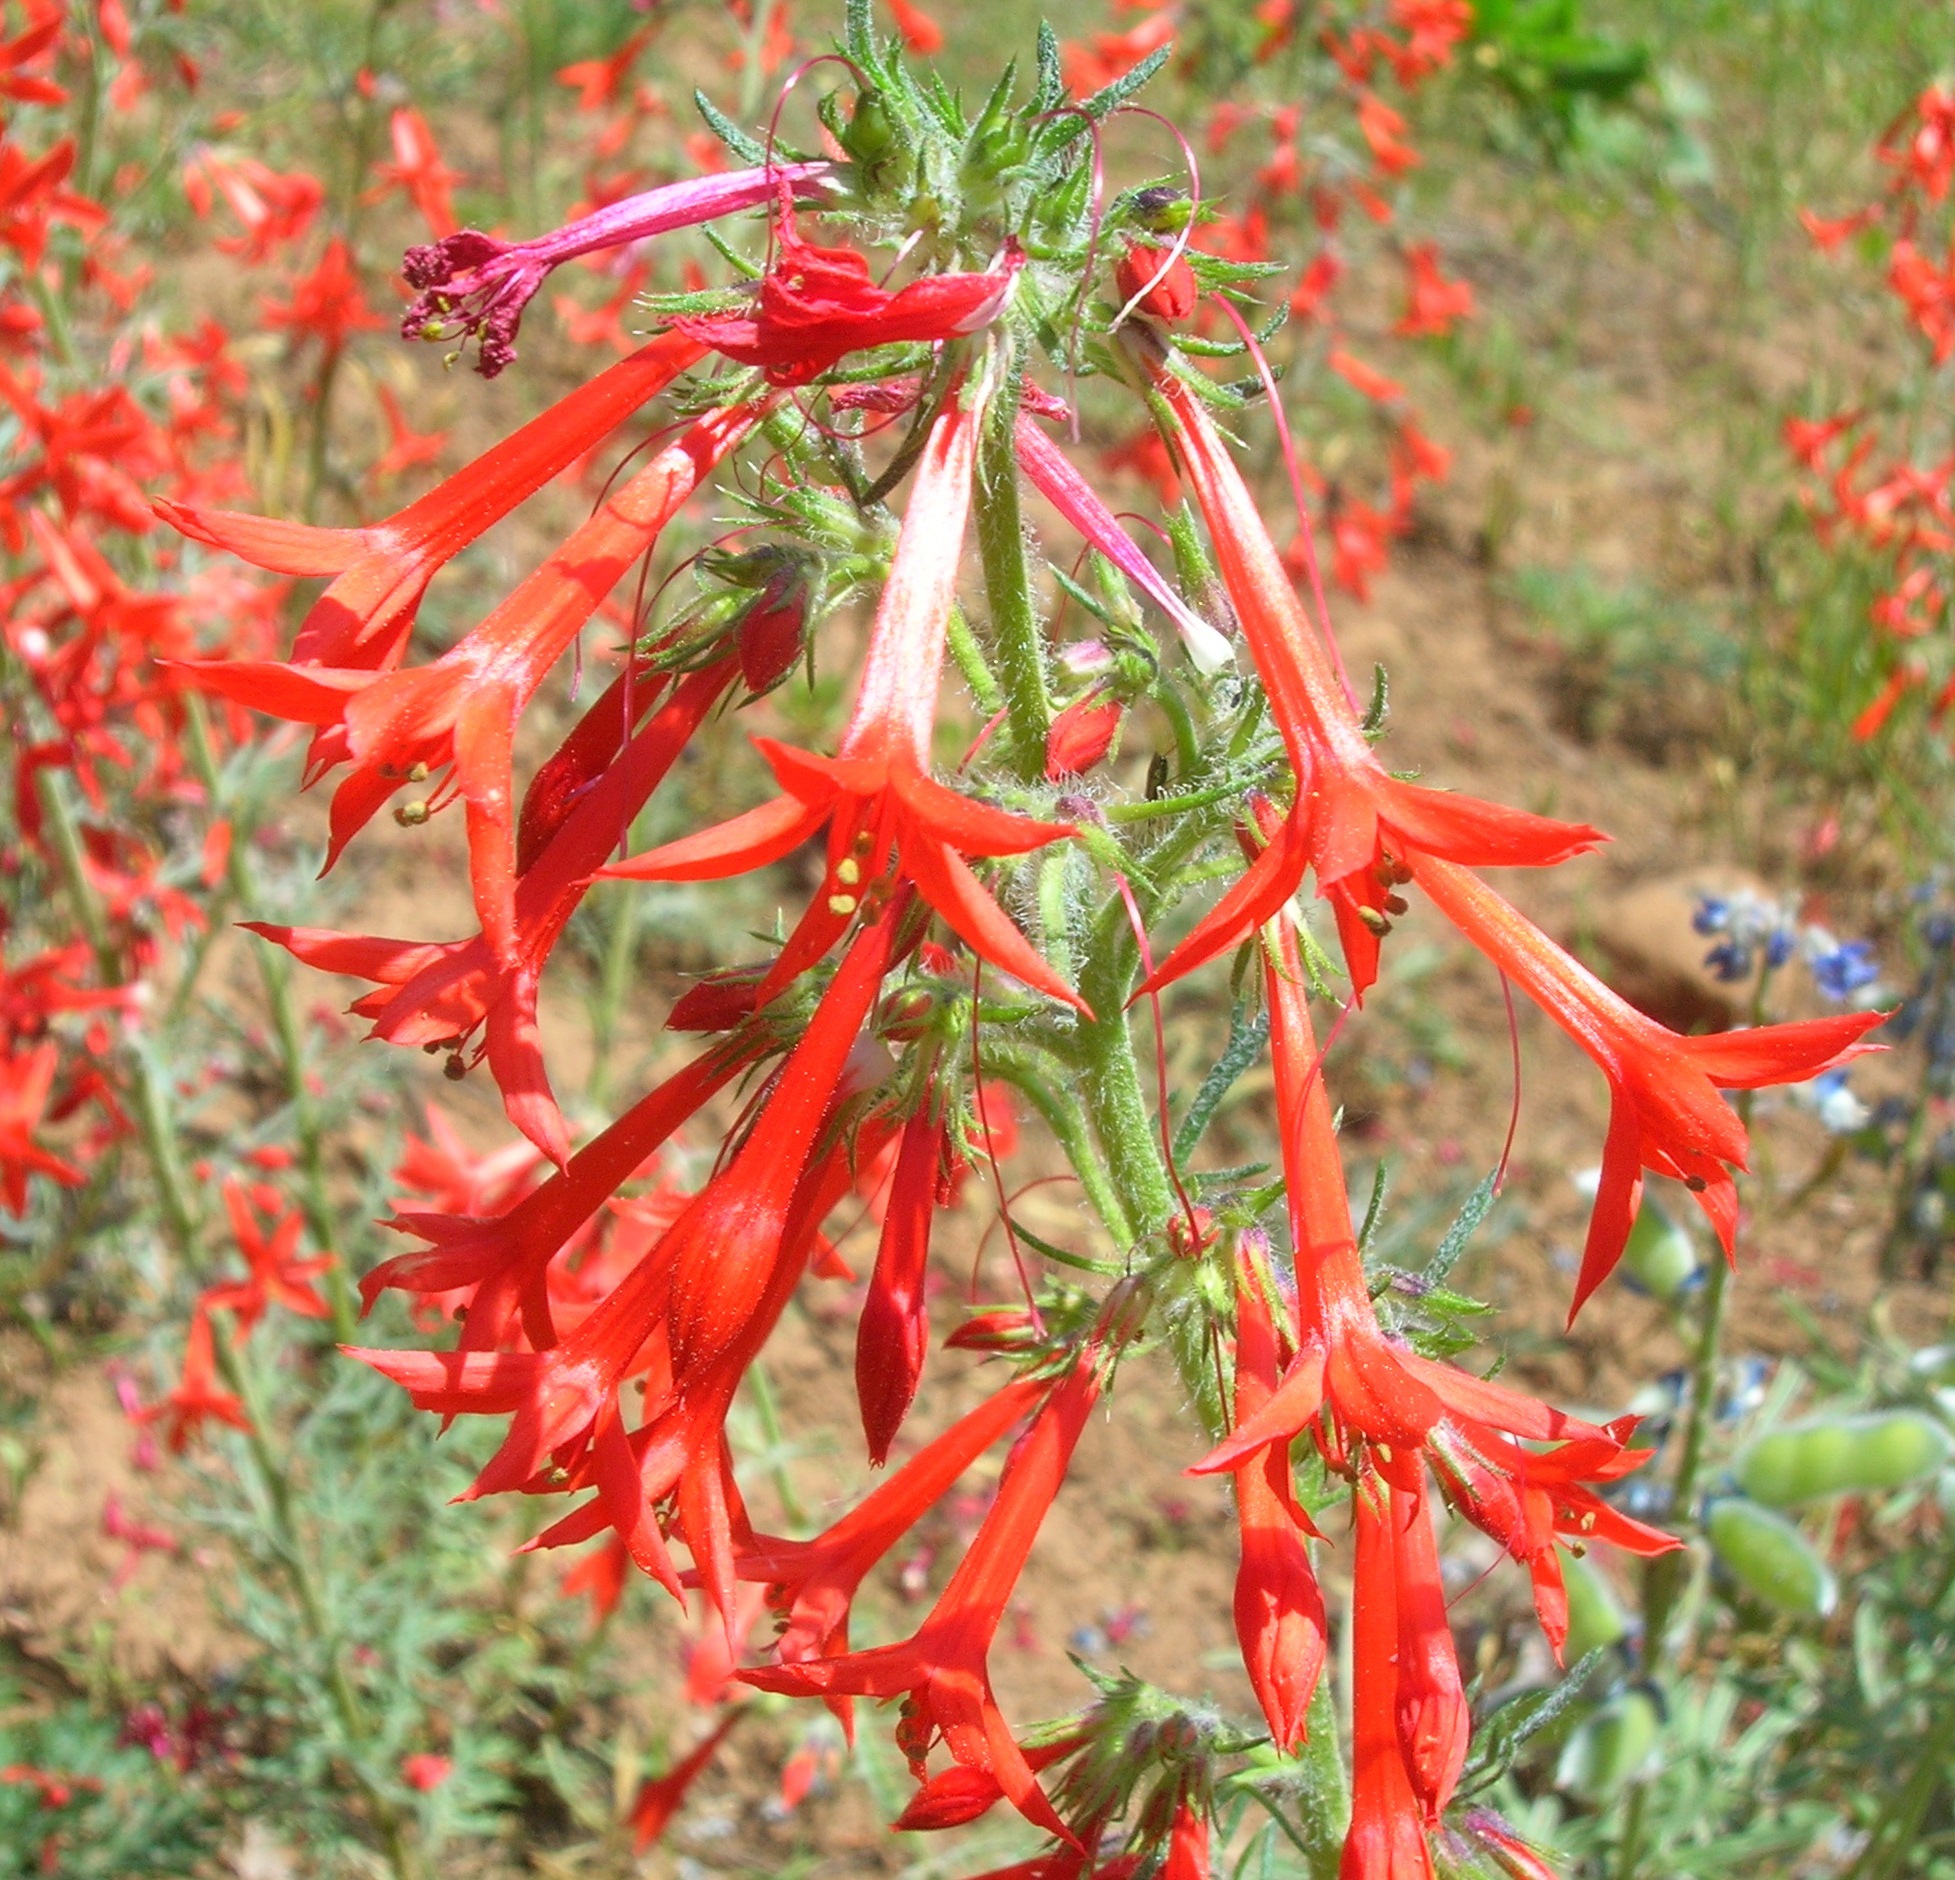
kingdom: Plantae
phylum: Tracheophyta
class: Magnoliopsida
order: Ericales
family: Polemoniaceae
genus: Ipomopsis
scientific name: Ipomopsis aggregata
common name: Scarlet gilia
